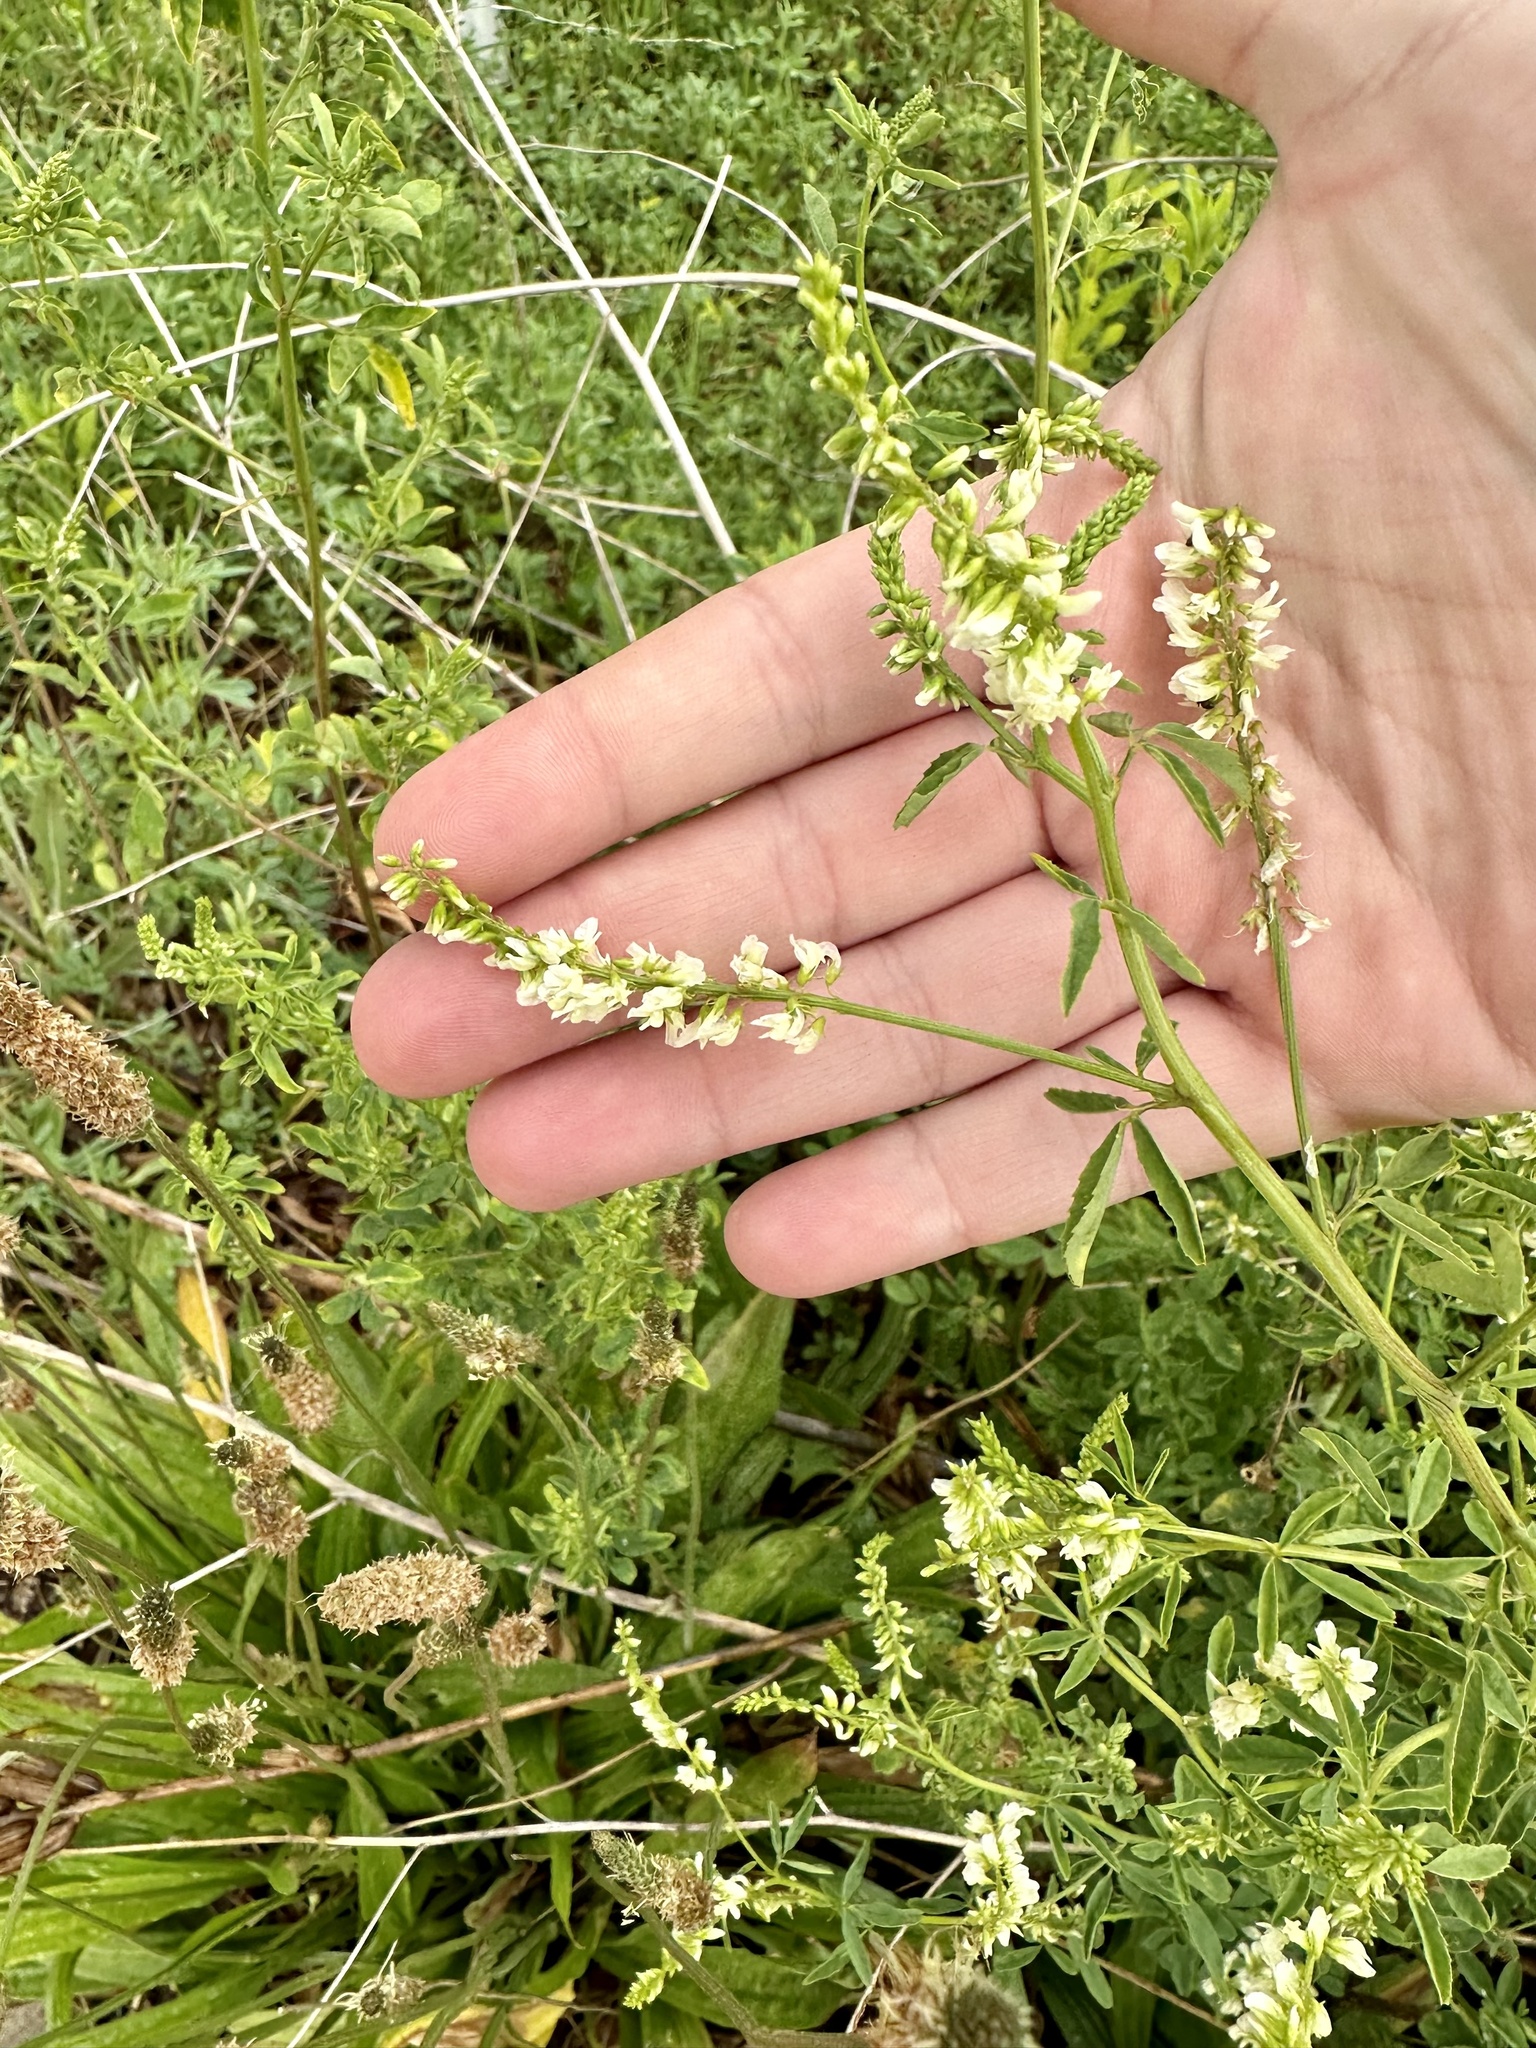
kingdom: Plantae
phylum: Tracheophyta
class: Magnoliopsida
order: Fabales
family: Fabaceae
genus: Melilotus
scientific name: Melilotus albus
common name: White melilot
